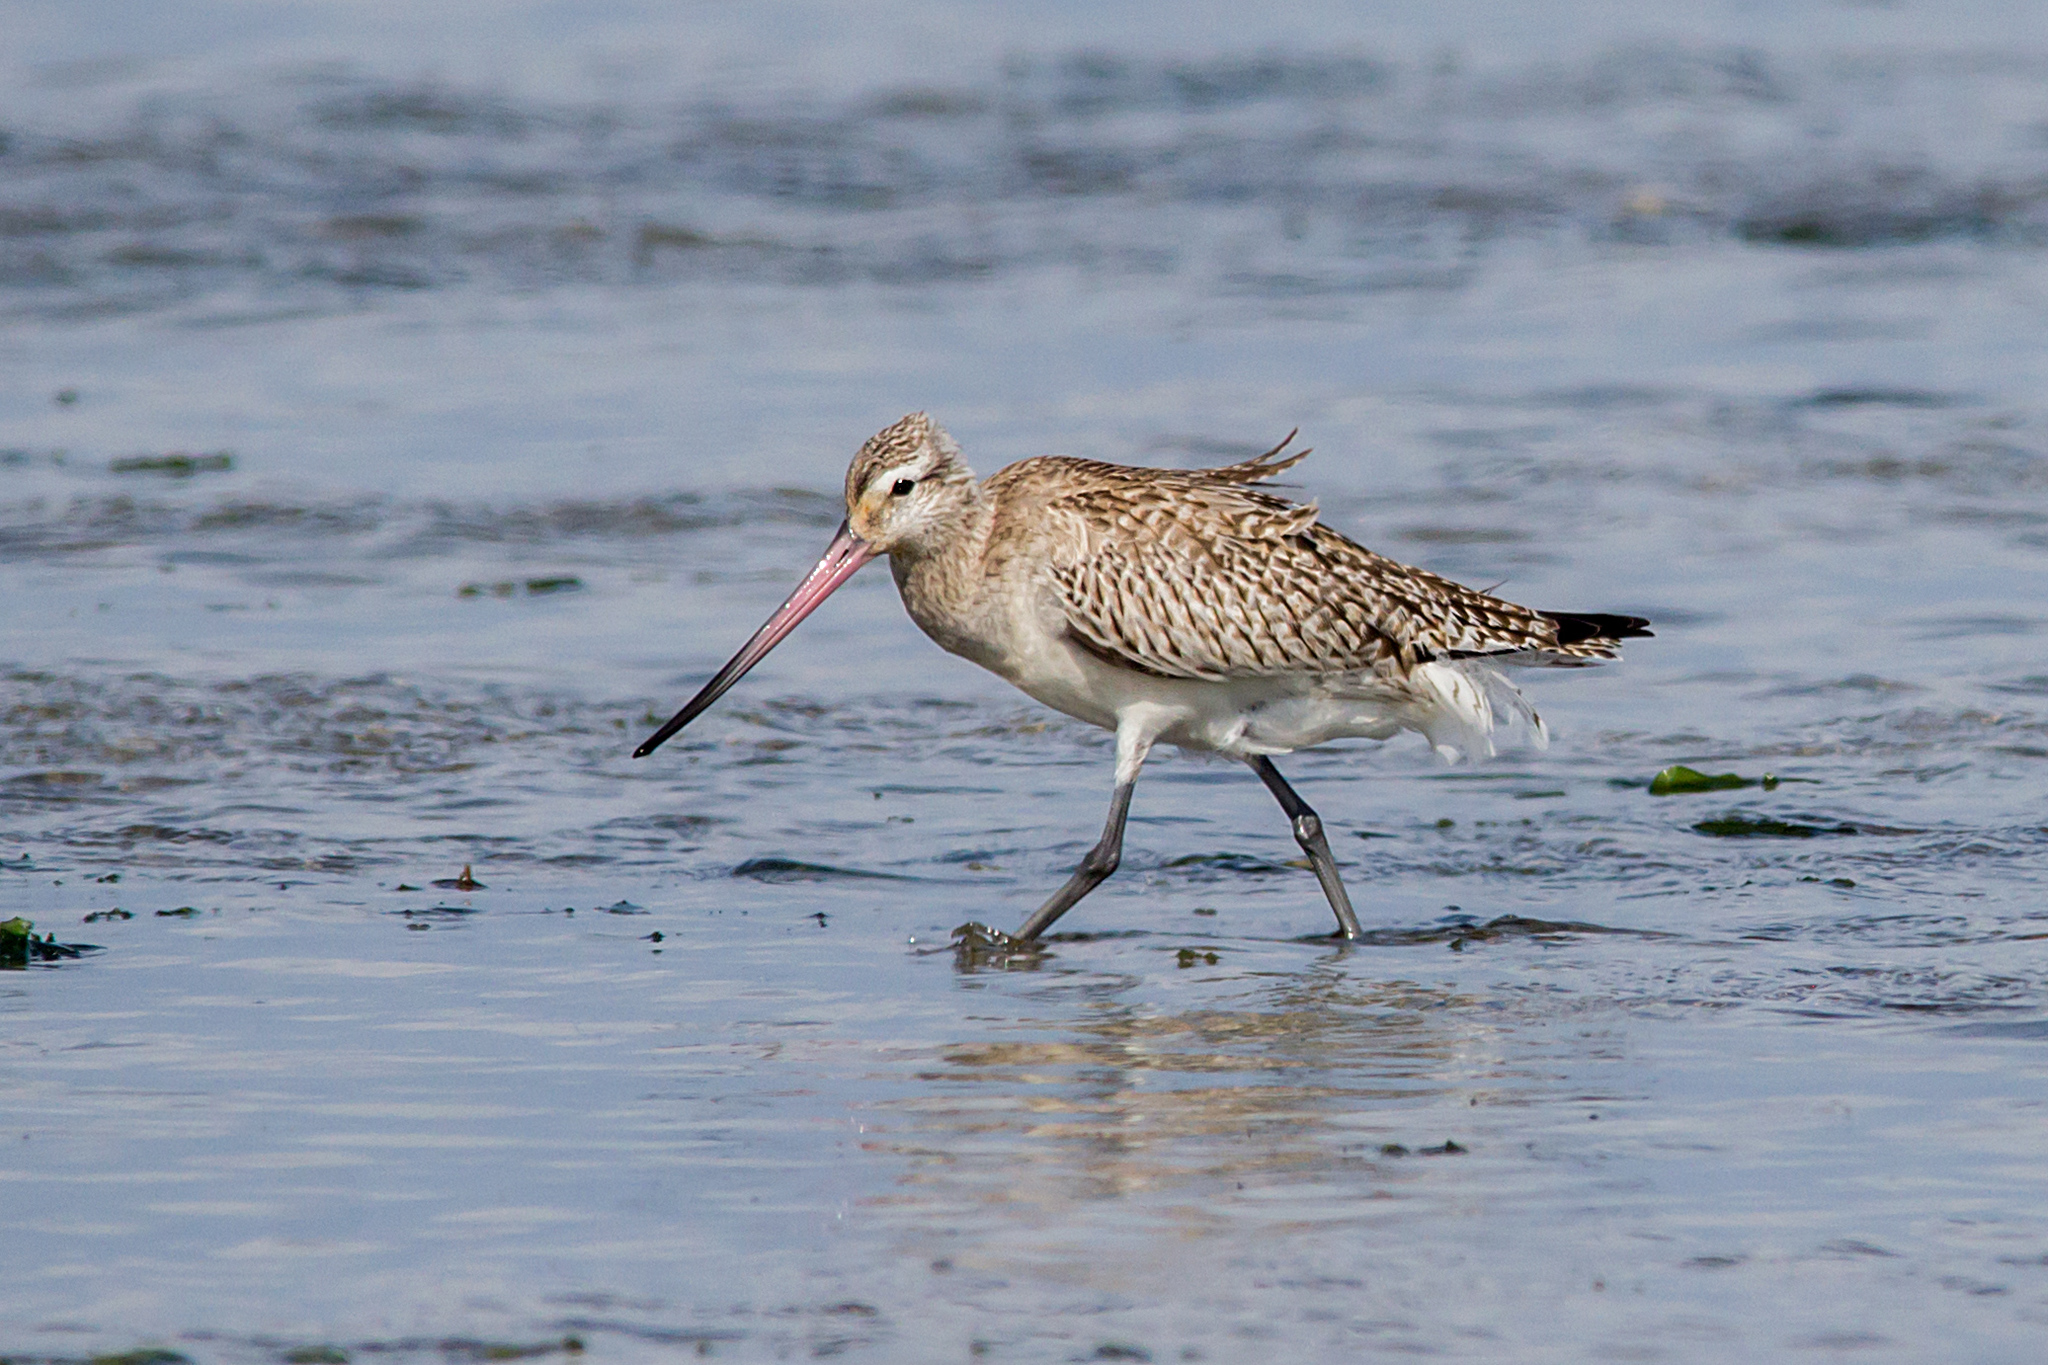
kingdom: Animalia
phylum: Chordata
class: Aves
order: Charadriiformes
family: Scolopacidae
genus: Limosa
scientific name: Limosa lapponica
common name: Bar-tailed godwit
